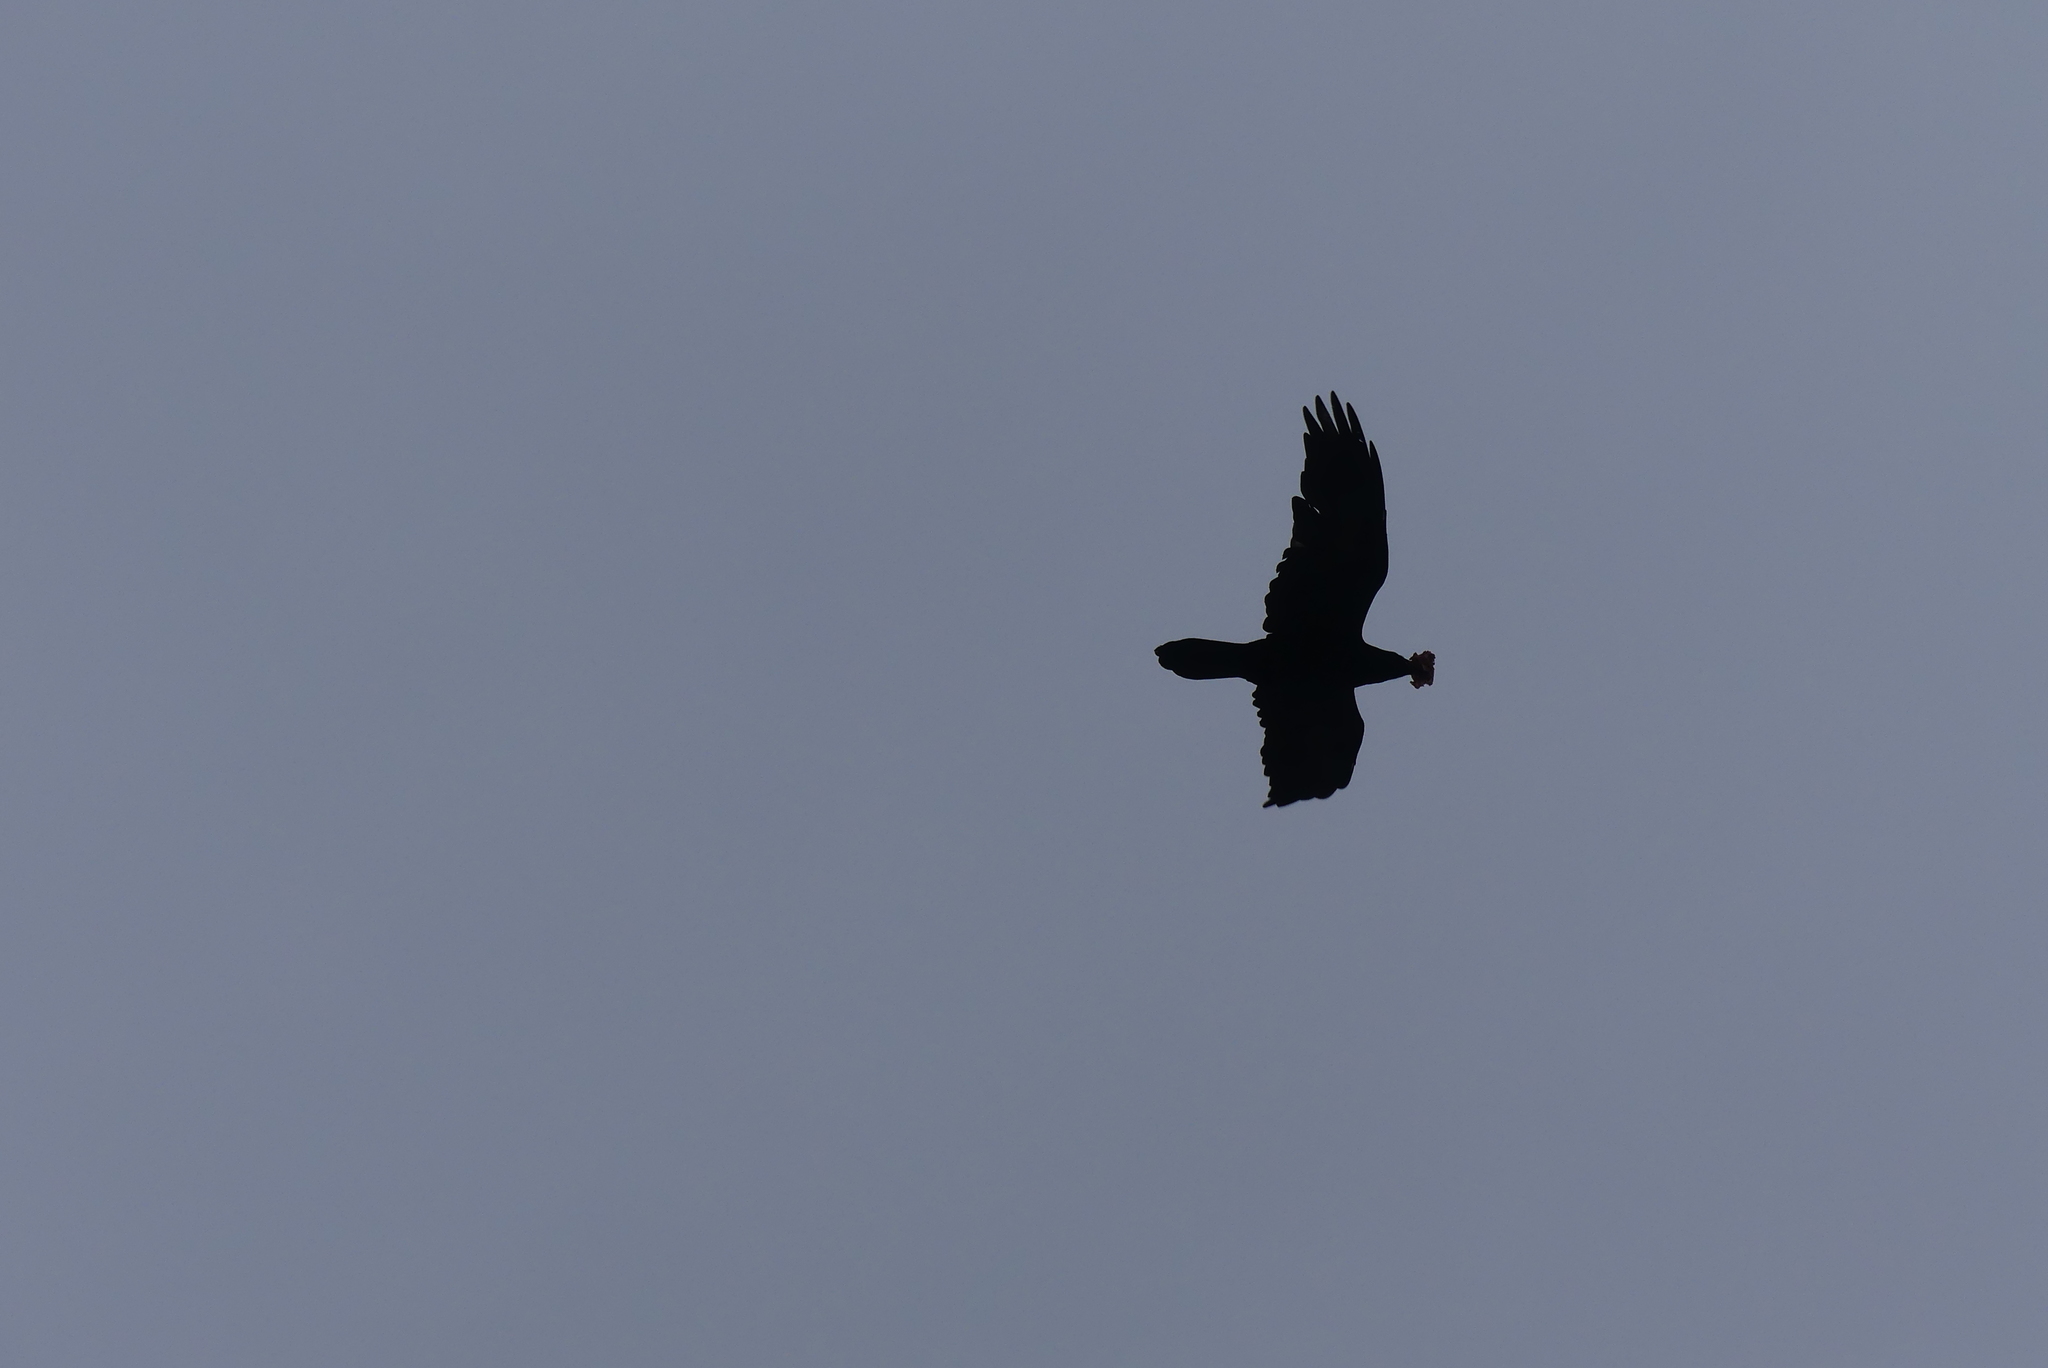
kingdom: Animalia
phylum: Chordata
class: Aves
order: Passeriformes
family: Corvidae
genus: Corvus
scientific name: Corvus corax
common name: Common raven
